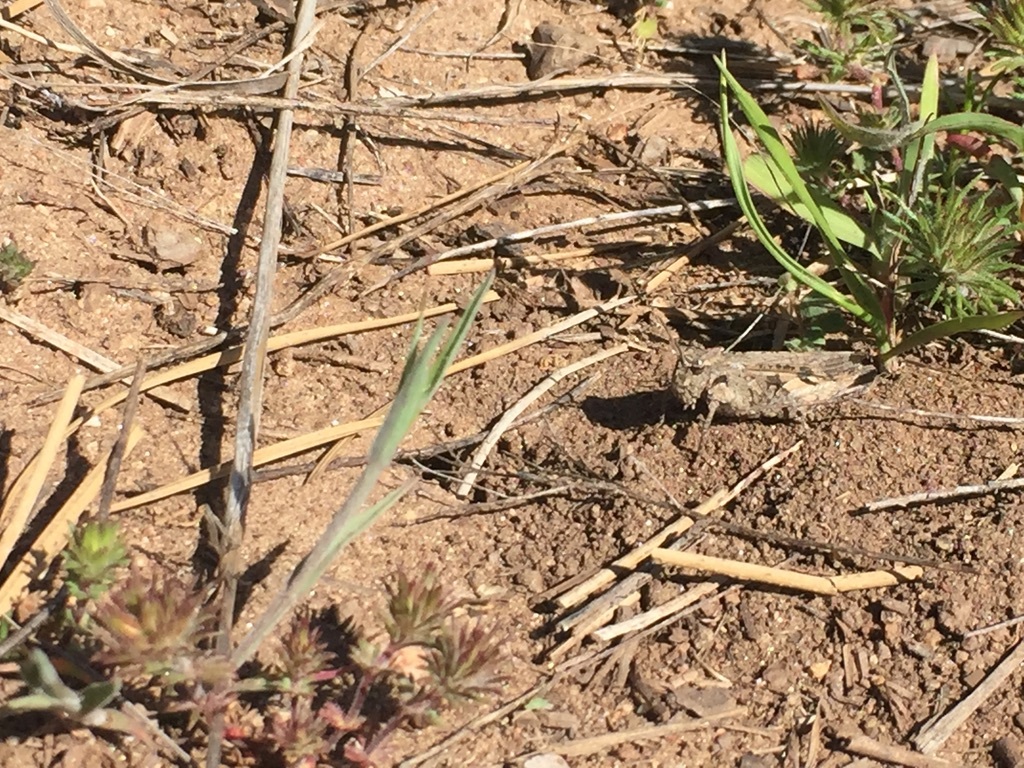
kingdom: Animalia
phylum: Arthropoda
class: Insecta
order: Orthoptera
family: Acrididae
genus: Chimarocephala
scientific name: Chimarocephala pacifica
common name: Painted meadow grasshopper
